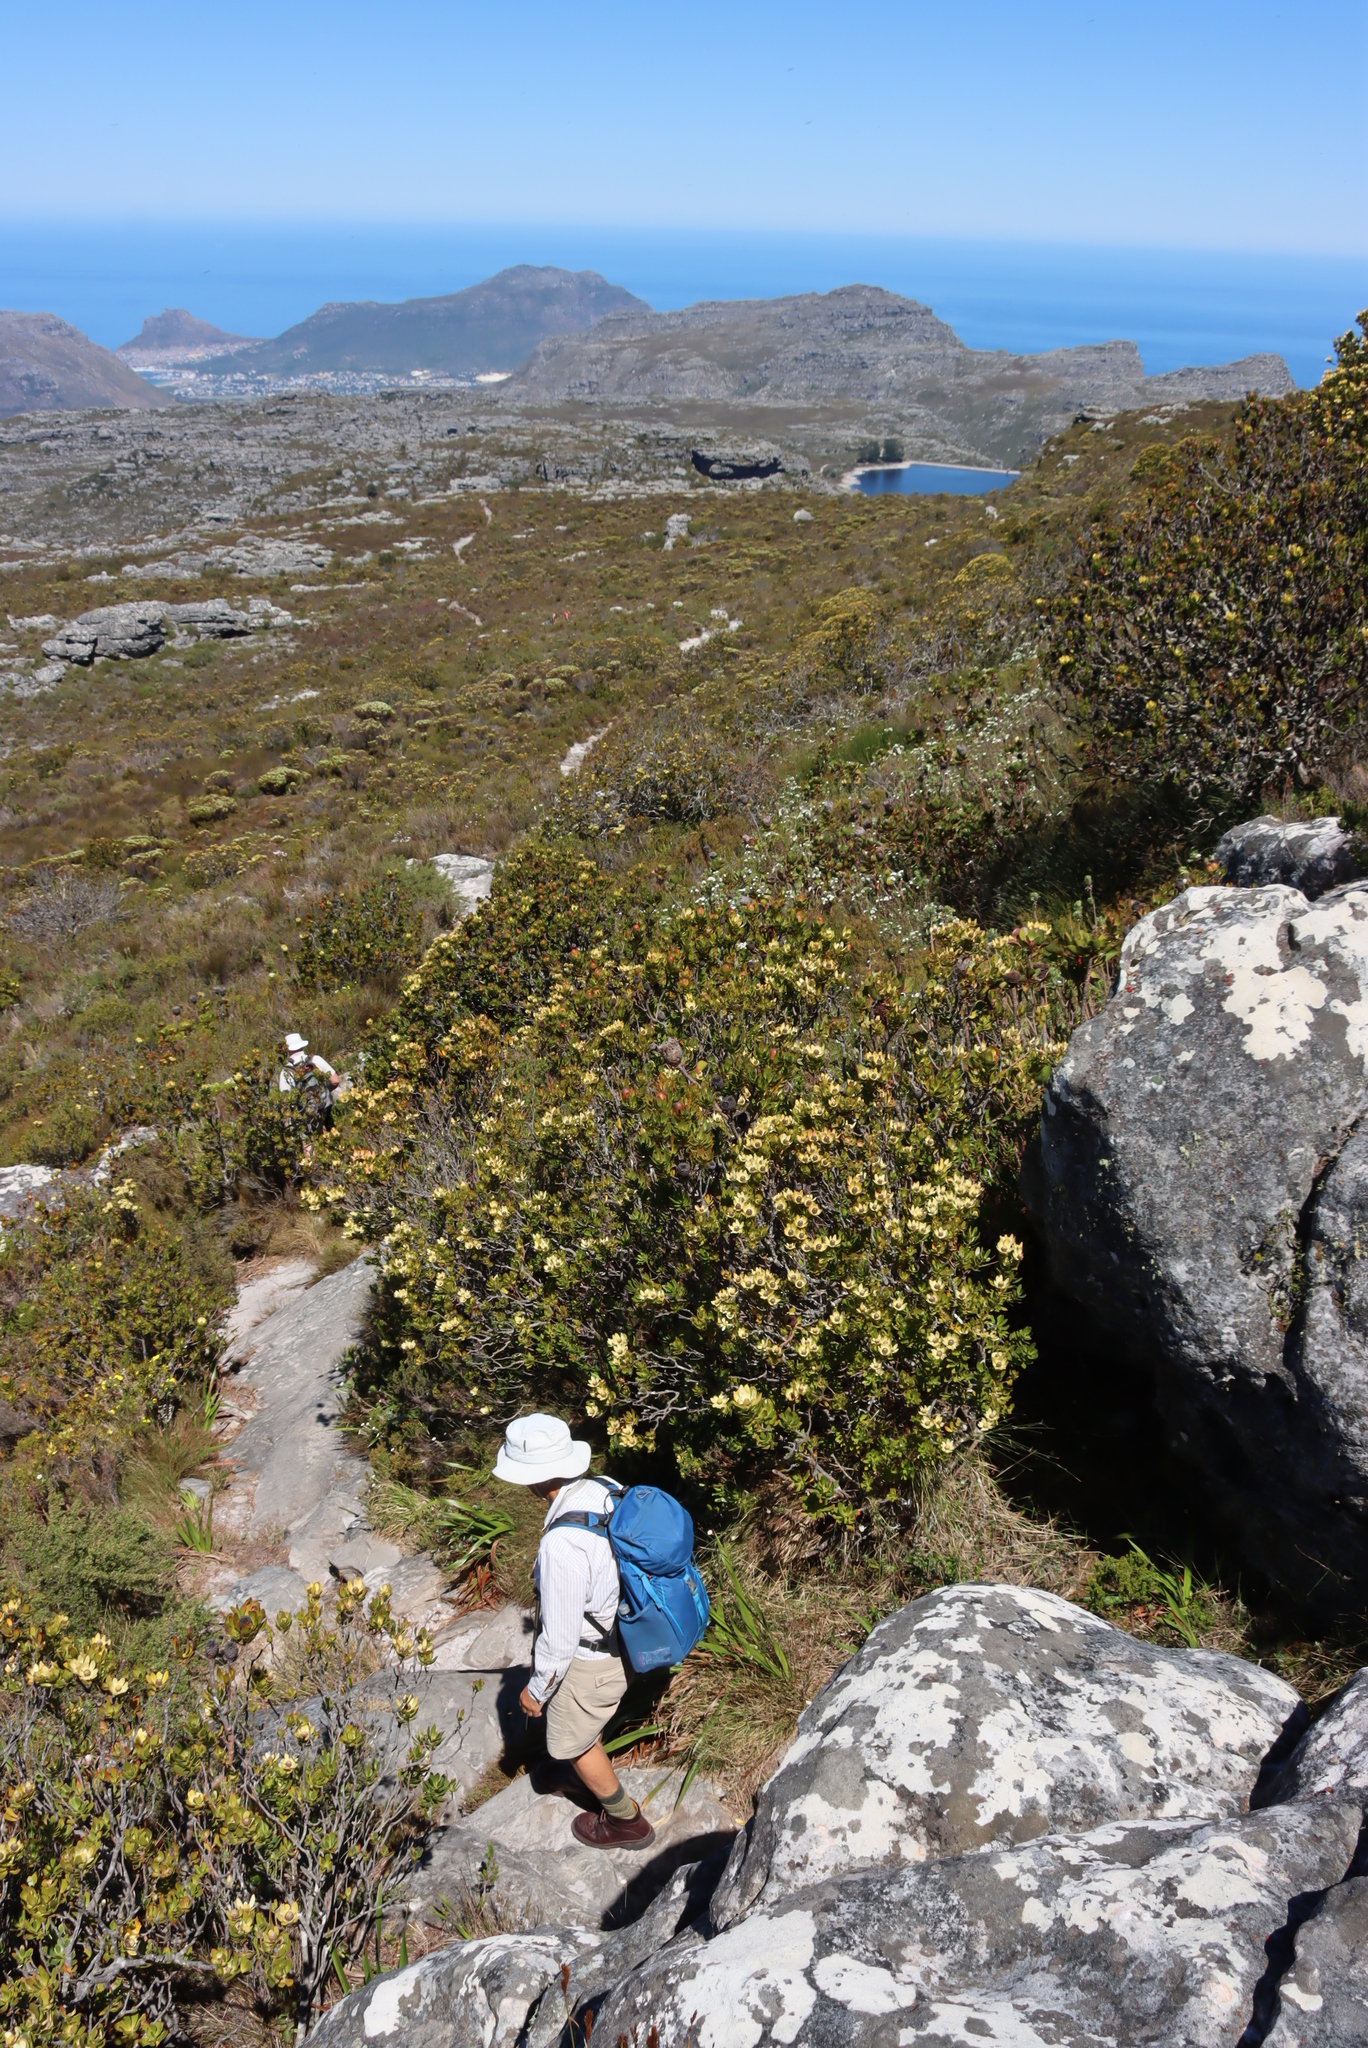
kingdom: Plantae
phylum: Tracheophyta
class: Magnoliopsida
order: Proteales
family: Proteaceae
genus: Leucadendron
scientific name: Leucadendron strobilinum
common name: Mountain rose
